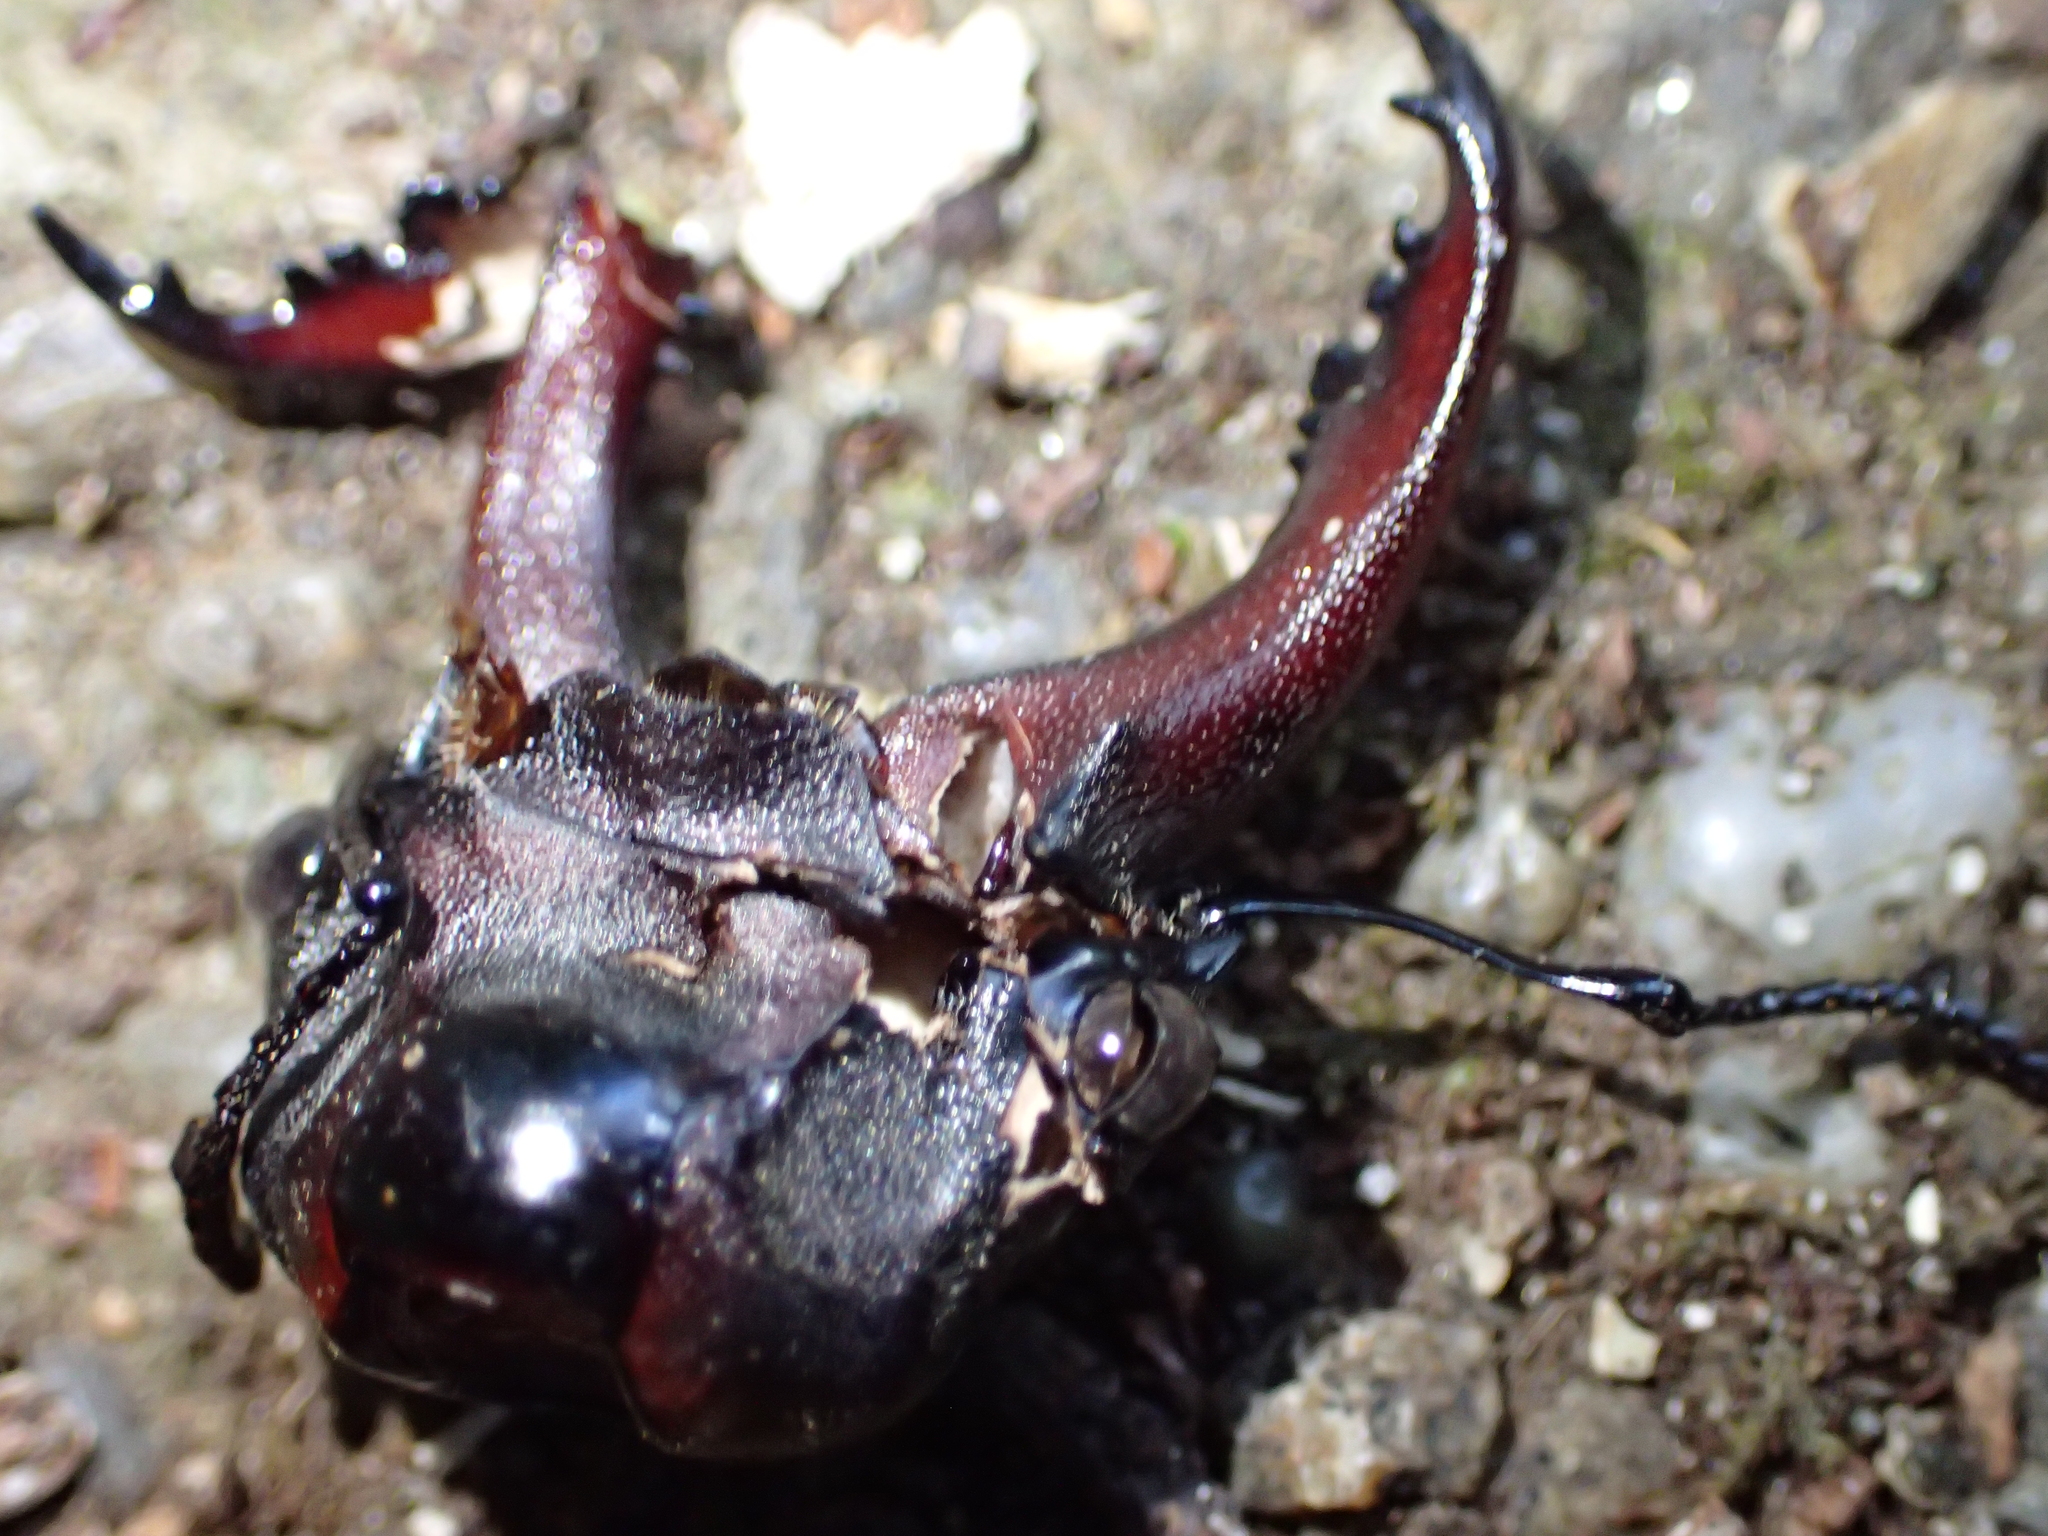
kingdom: Animalia
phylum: Arthropoda
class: Insecta
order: Coleoptera
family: Lucanidae
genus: Lucanus
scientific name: Lucanus cervus
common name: Stag beetle
